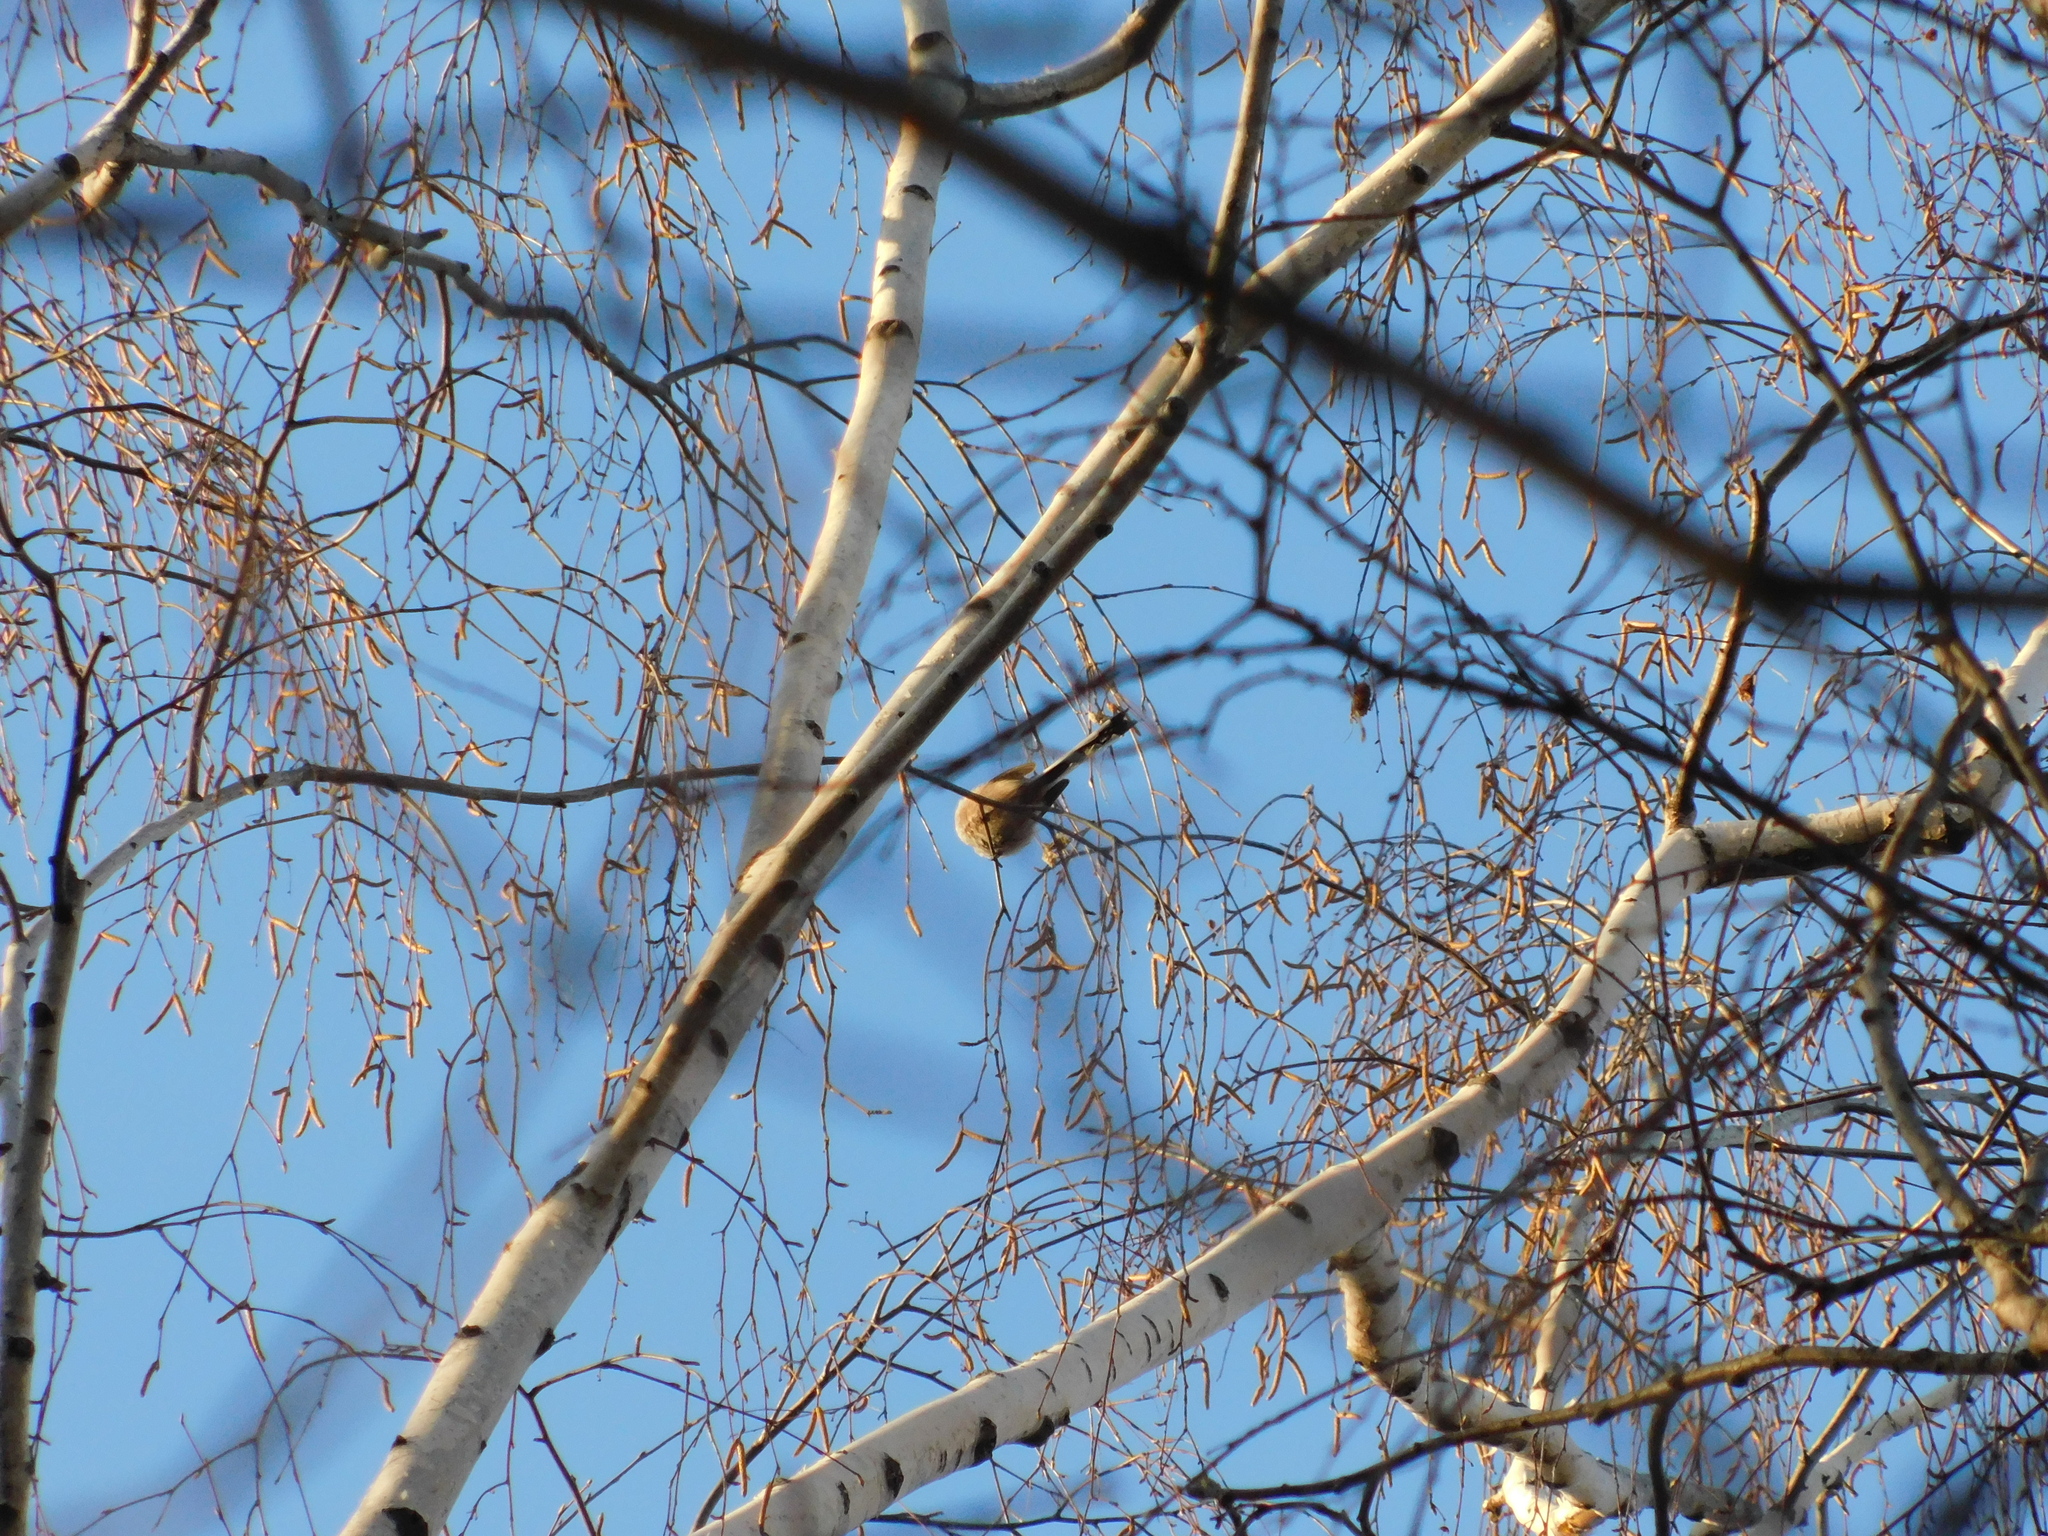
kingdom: Animalia
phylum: Chordata
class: Aves
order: Passeriformes
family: Aegithalidae
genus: Aegithalos
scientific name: Aegithalos caudatus
